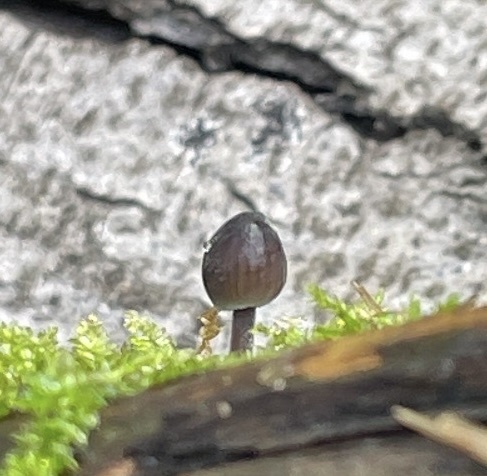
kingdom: Fungi
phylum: Basidiomycota
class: Agaricomycetes
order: Agaricales
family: Mycenaceae
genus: Mycena
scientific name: Mycena leptocephala
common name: Nitrous bonnet
